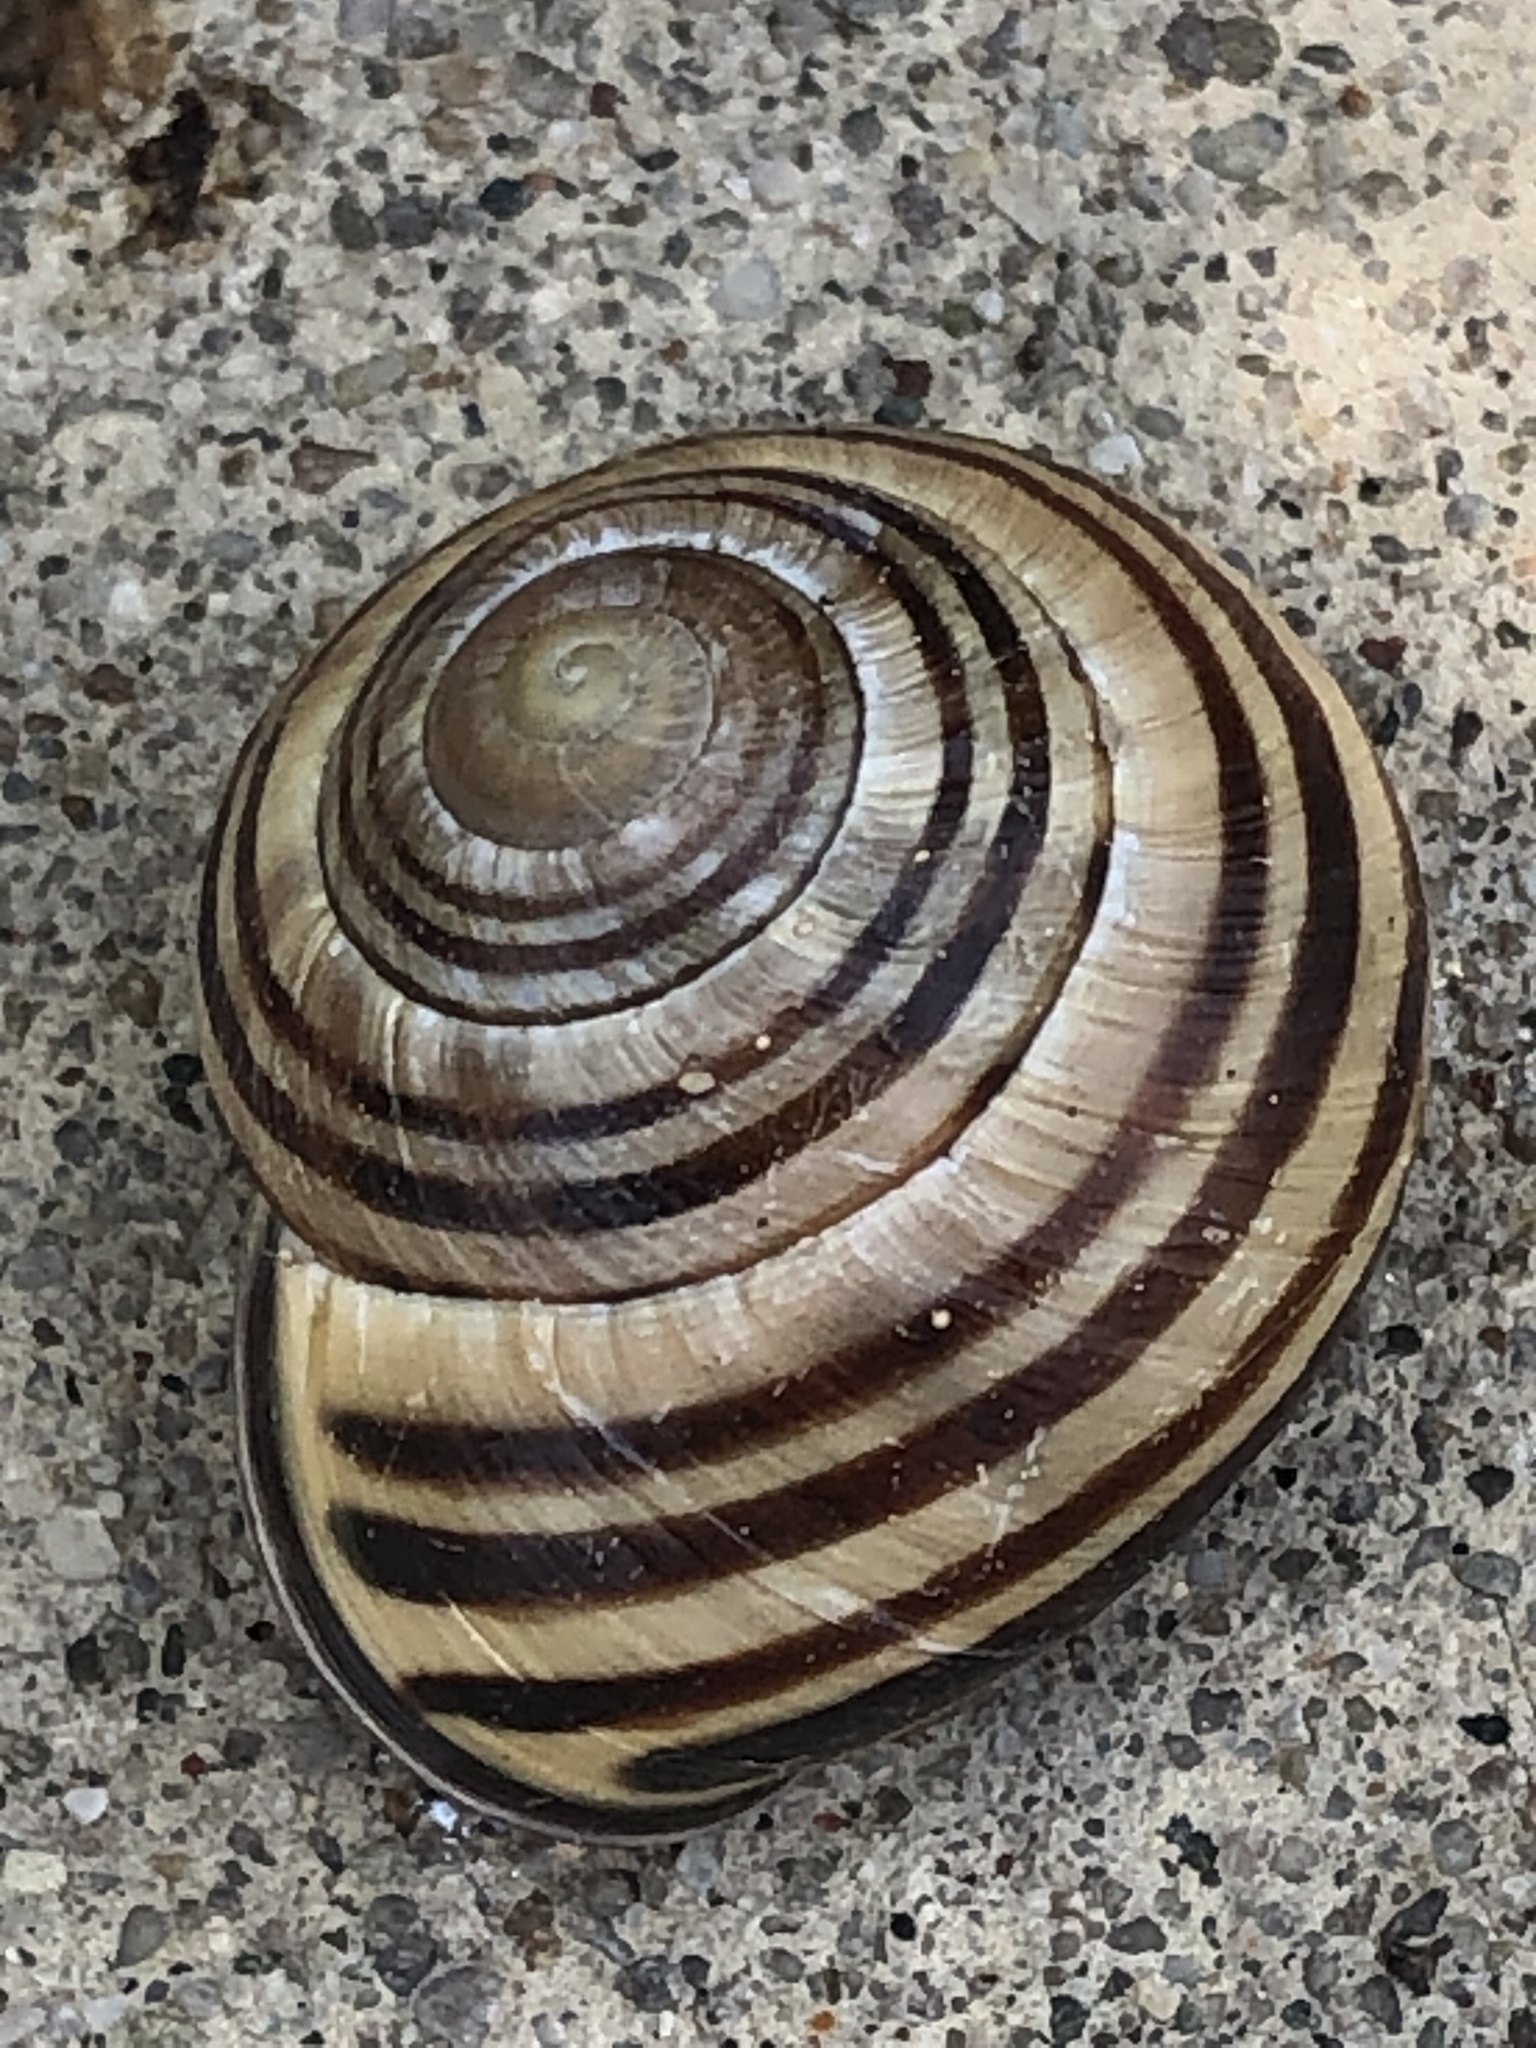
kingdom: Animalia
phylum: Mollusca
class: Gastropoda
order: Stylommatophora
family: Helicidae
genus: Cepaea
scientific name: Cepaea nemoralis
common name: Grovesnail
